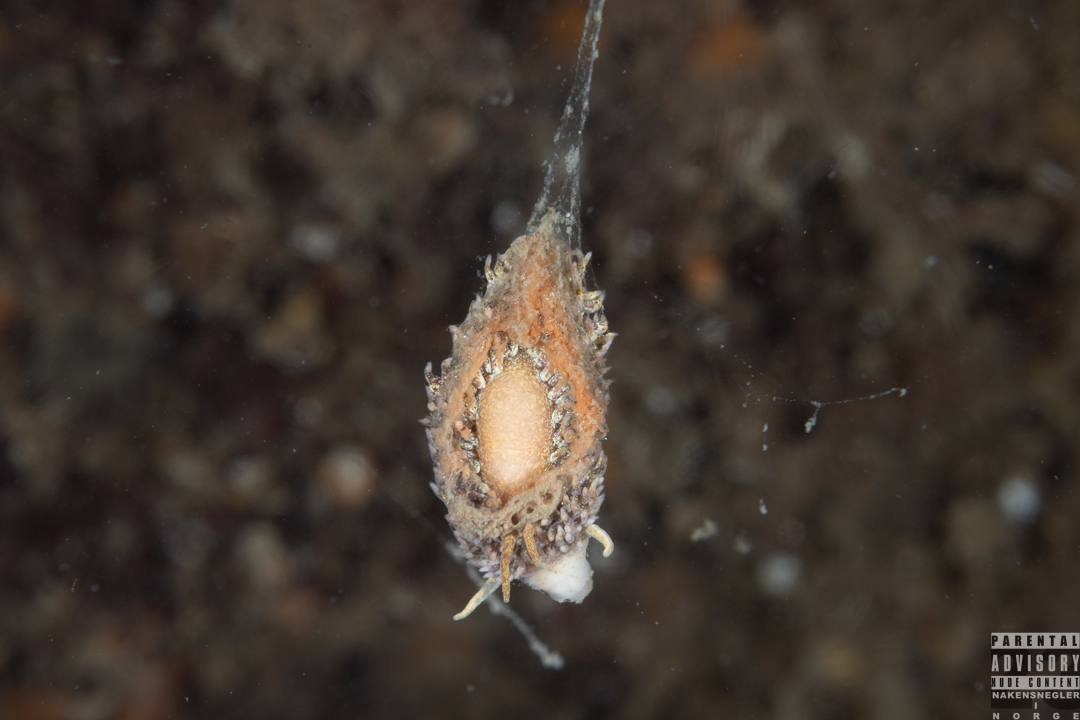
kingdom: Animalia
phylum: Mollusca
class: Gastropoda
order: Nudibranchia
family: Aeolidiidae
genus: Aeolidia
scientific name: Aeolidia papillosa
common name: Common grey sea slug
